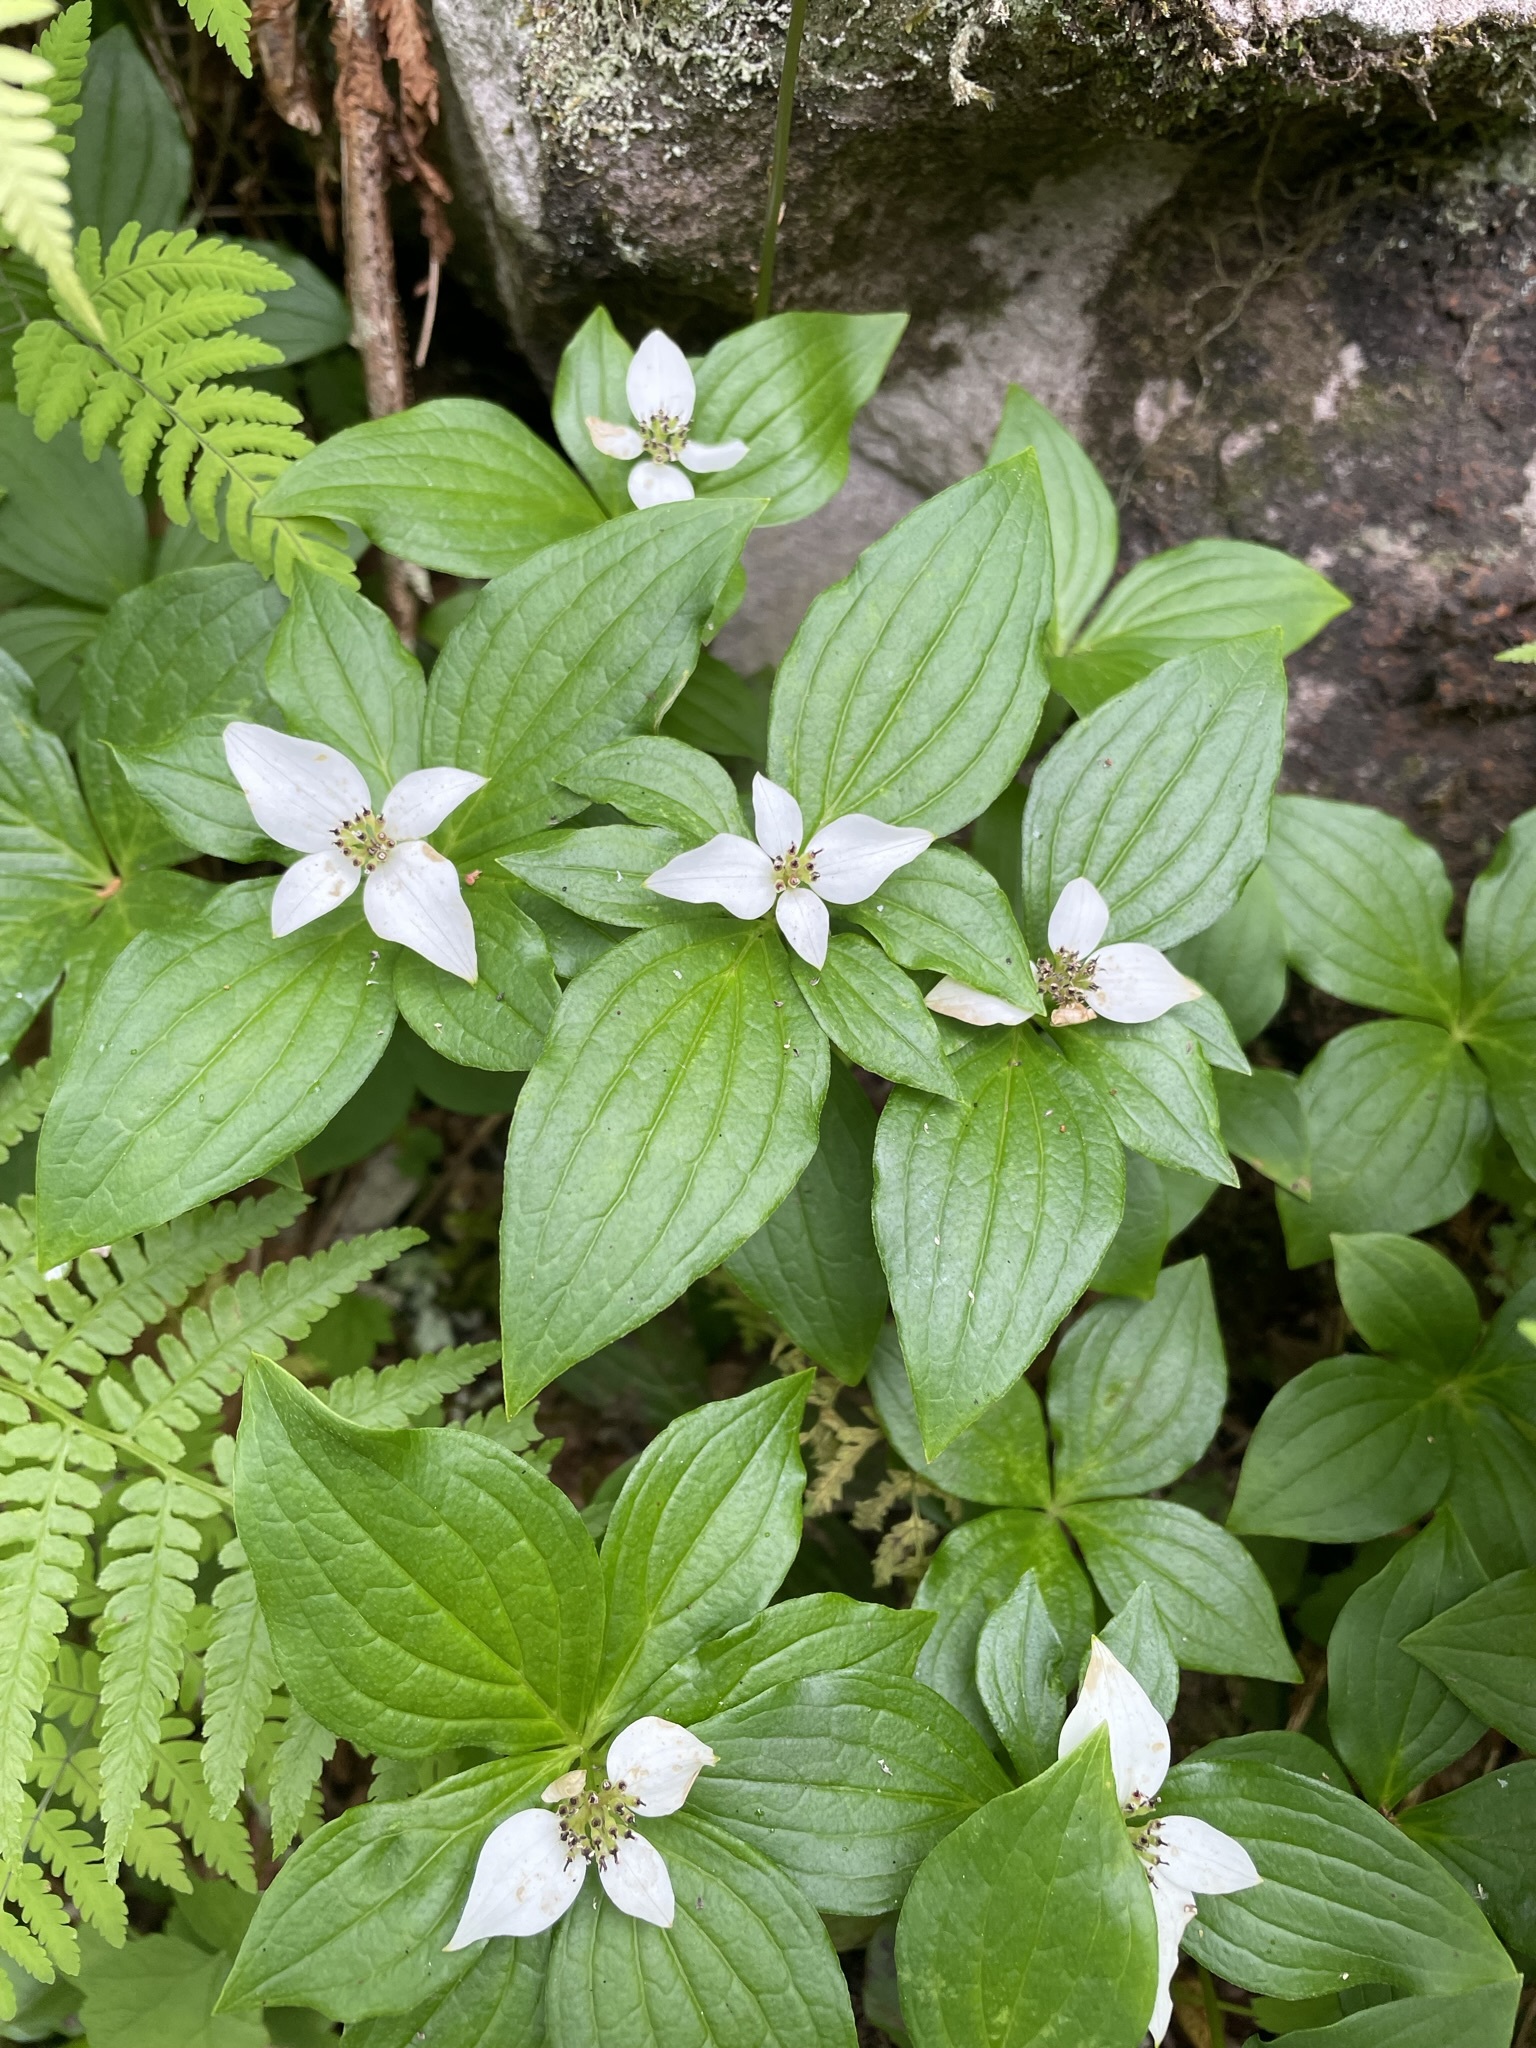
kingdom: Plantae
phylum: Tracheophyta
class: Magnoliopsida
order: Cornales
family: Cornaceae
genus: Cornus
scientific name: Cornus unalaschkensis
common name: Alaska bunchberry
